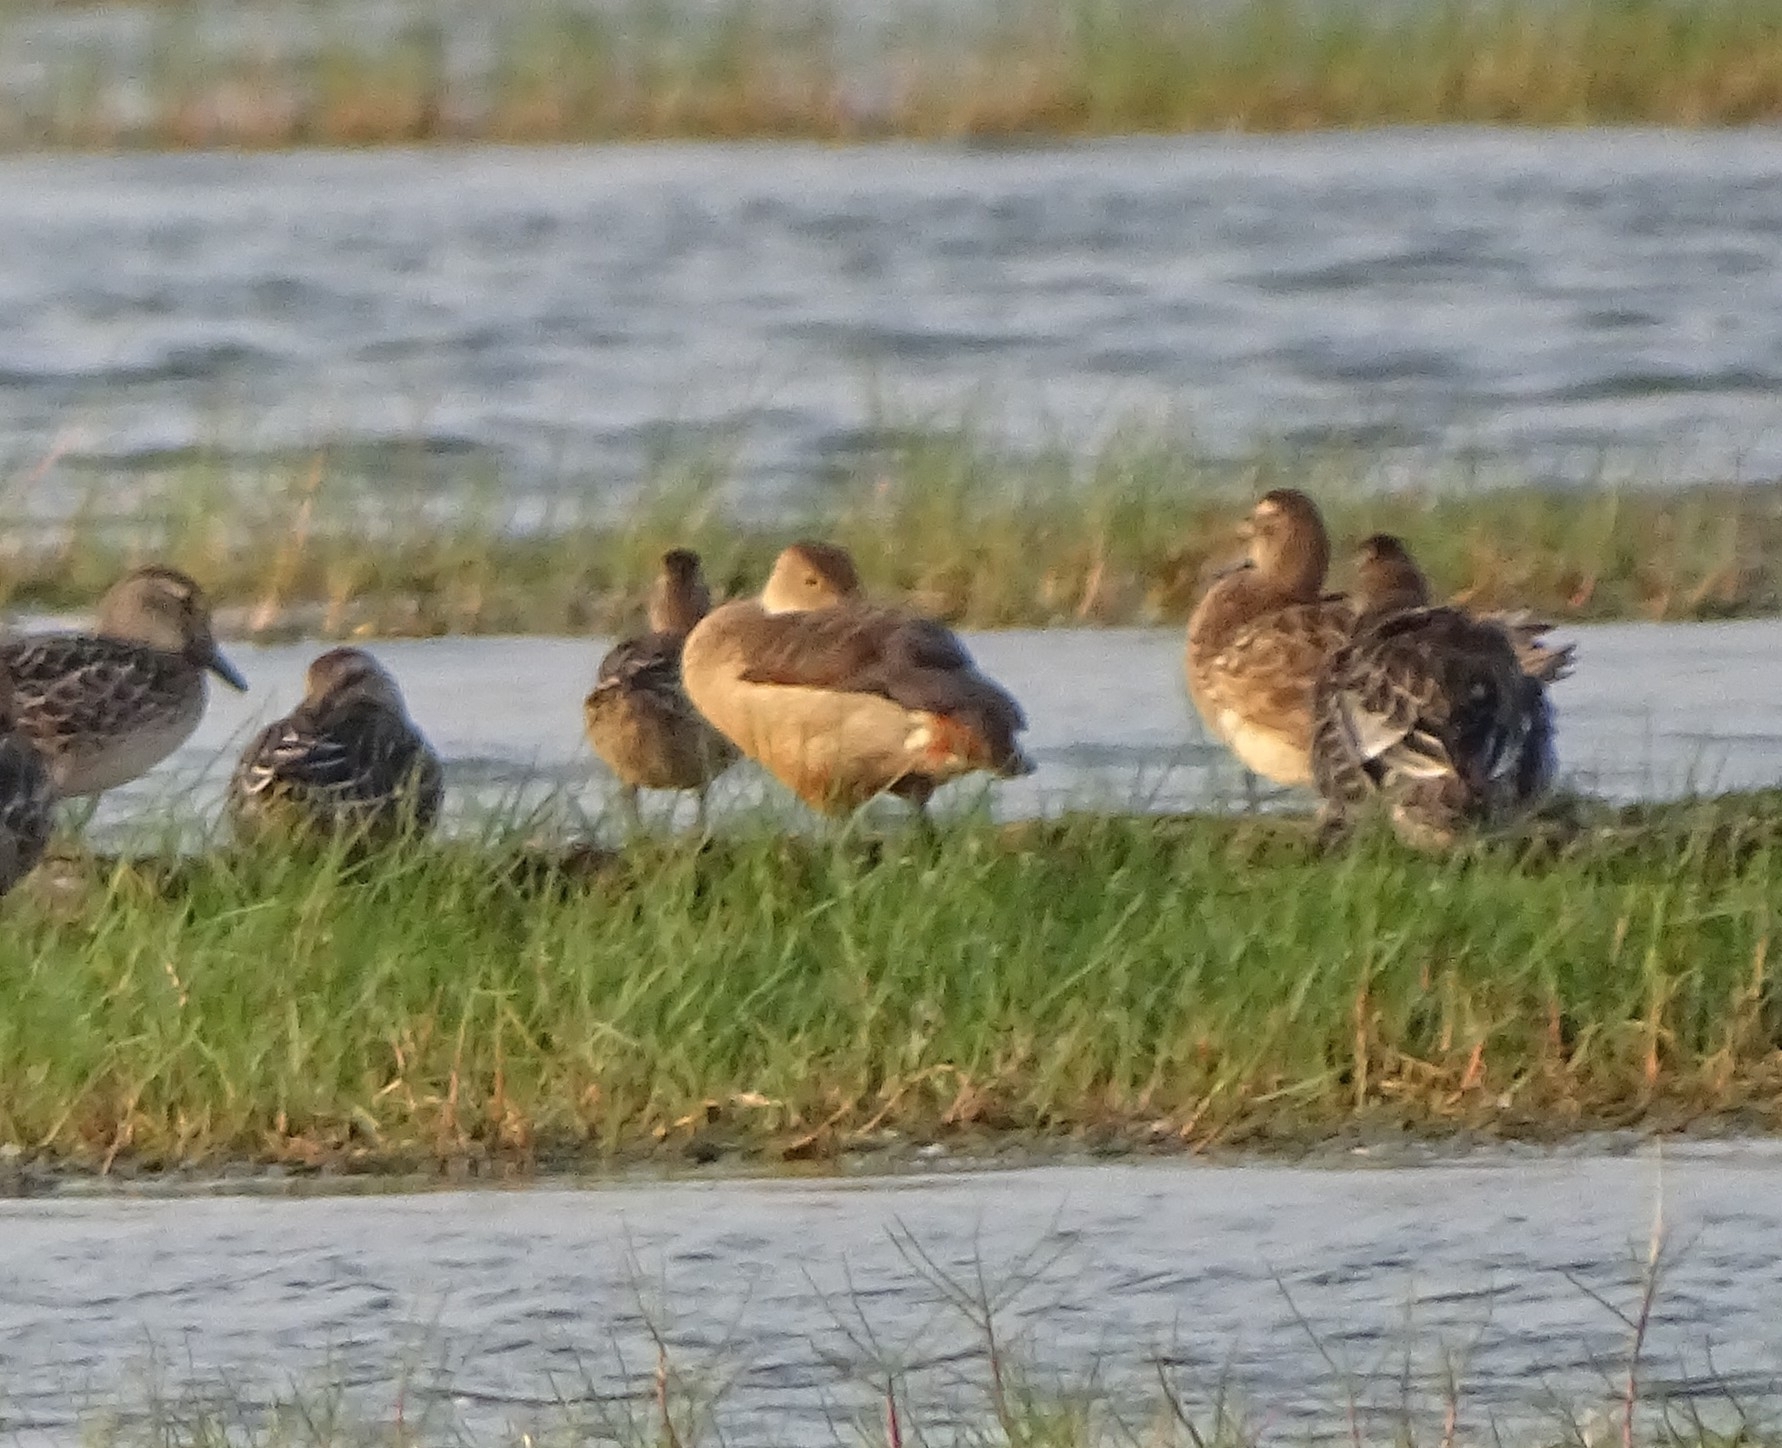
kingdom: Animalia
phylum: Chordata
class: Aves
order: Anseriformes
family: Anatidae
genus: Dendrocygna
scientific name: Dendrocygna javanica
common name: Lesser whistling-duck
